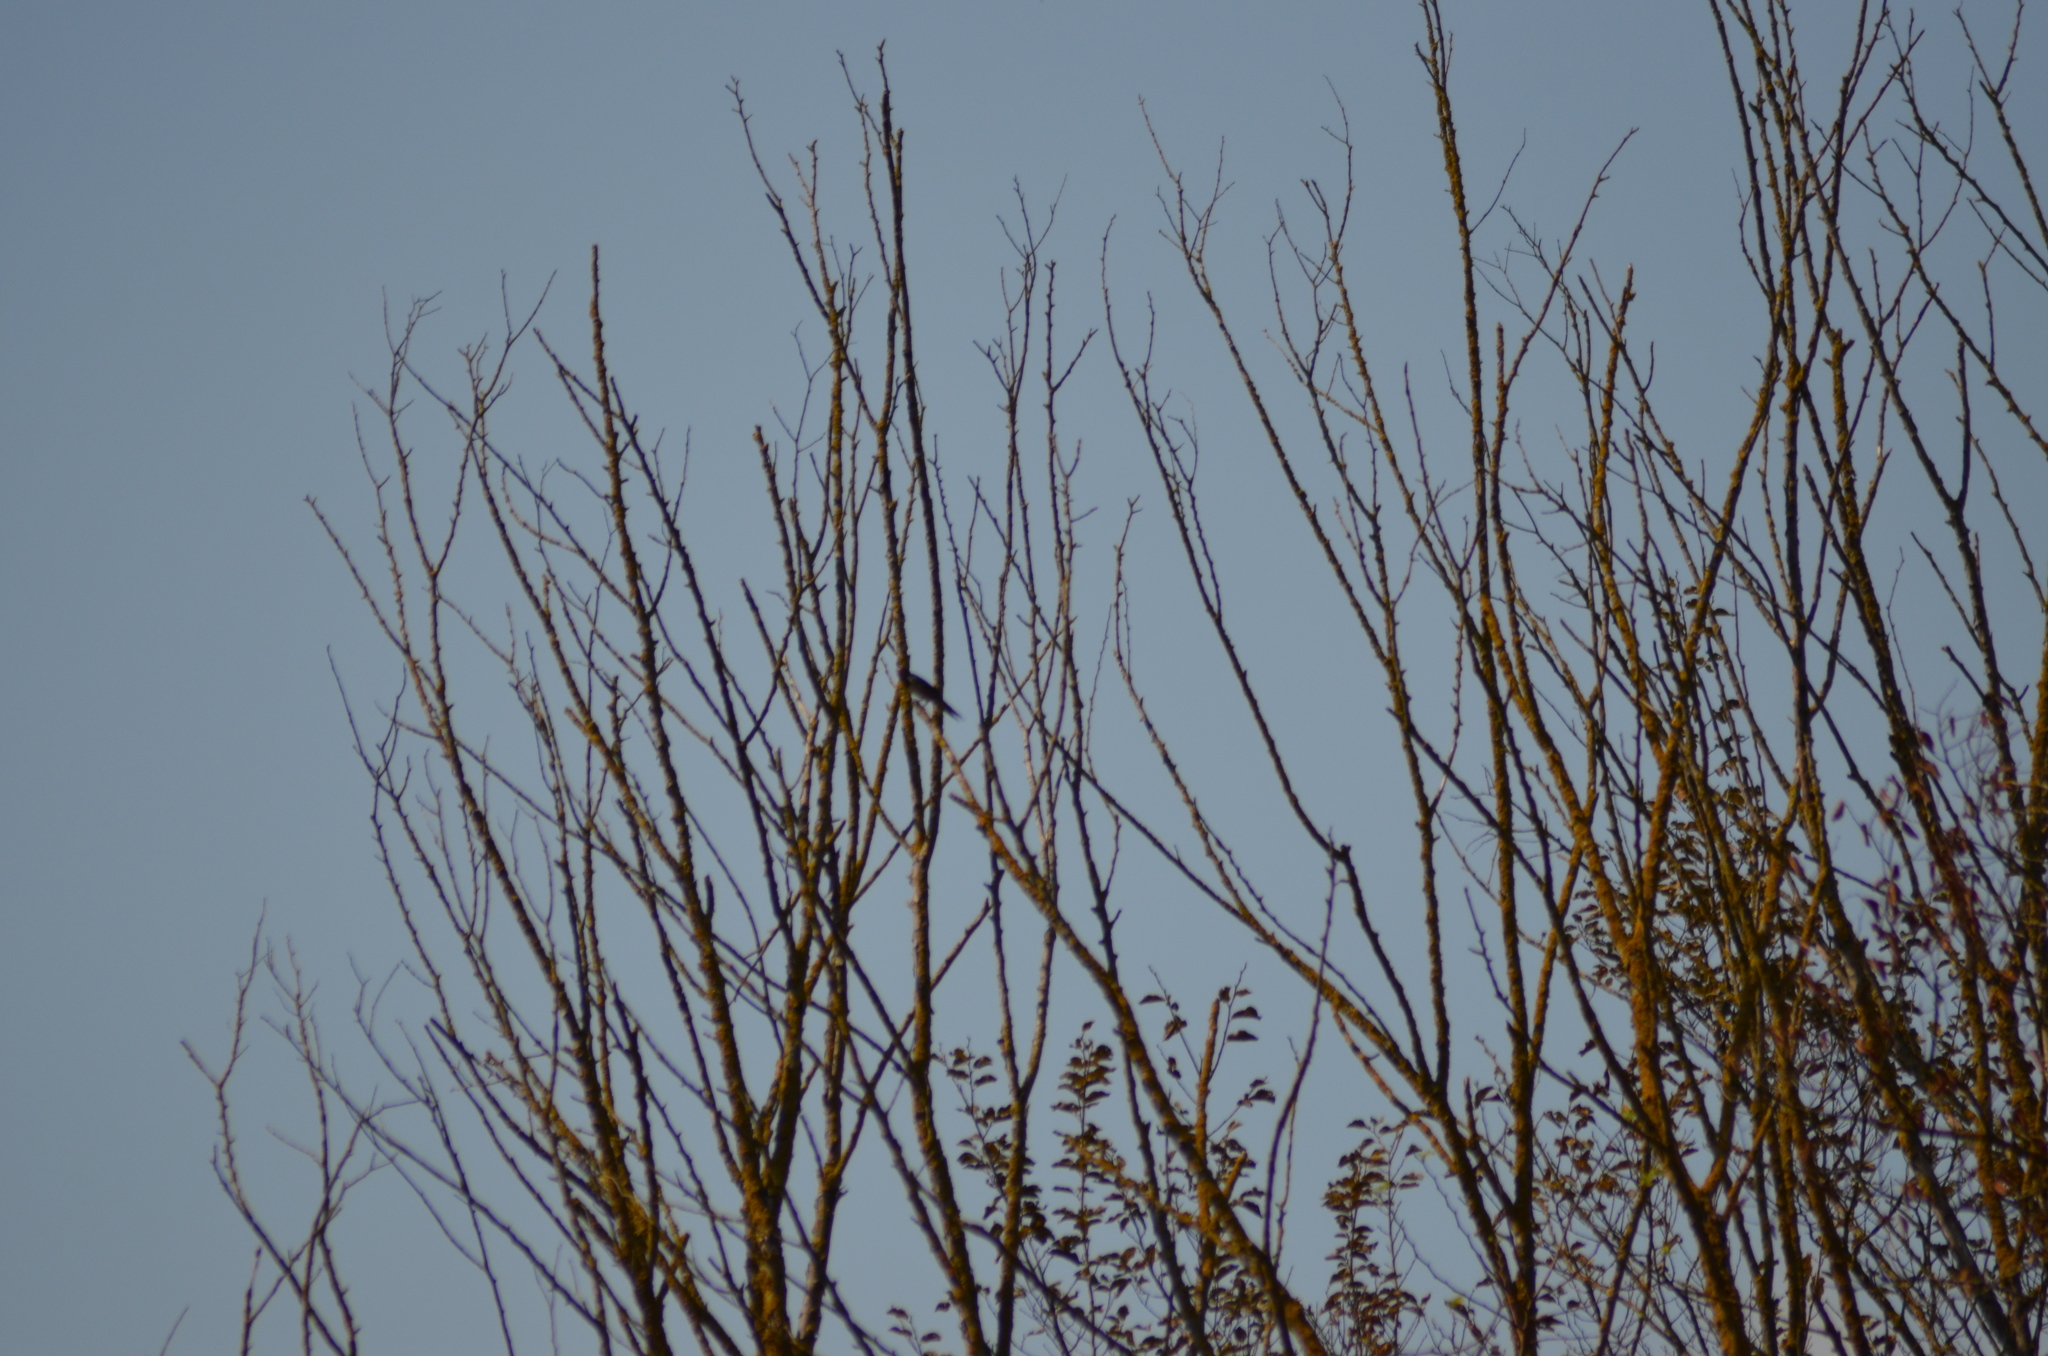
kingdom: Animalia
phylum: Chordata
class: Aves
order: Passeriformes
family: Hirundinidae
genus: Hirundo
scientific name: Hirundo rustica
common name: Barn swallow
